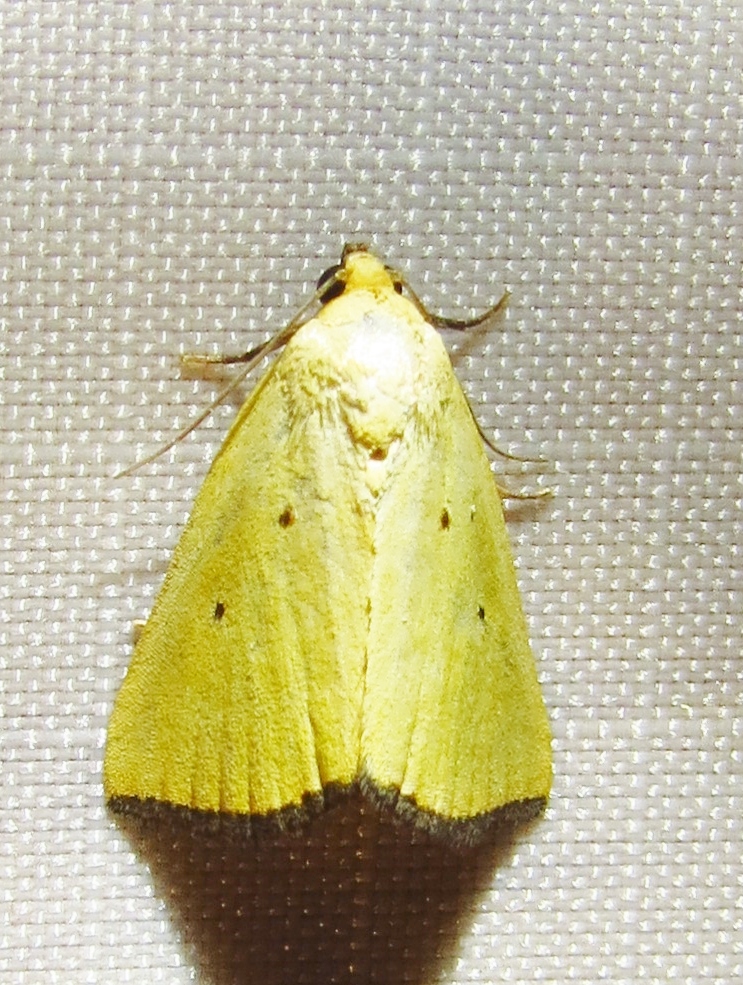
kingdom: Animalia
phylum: Arthropoda
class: Insecta
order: Lepidoptera
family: Noctuidae
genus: Marimatha
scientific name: Marimatha nigrofimbria
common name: Black-bordered lemon moth
